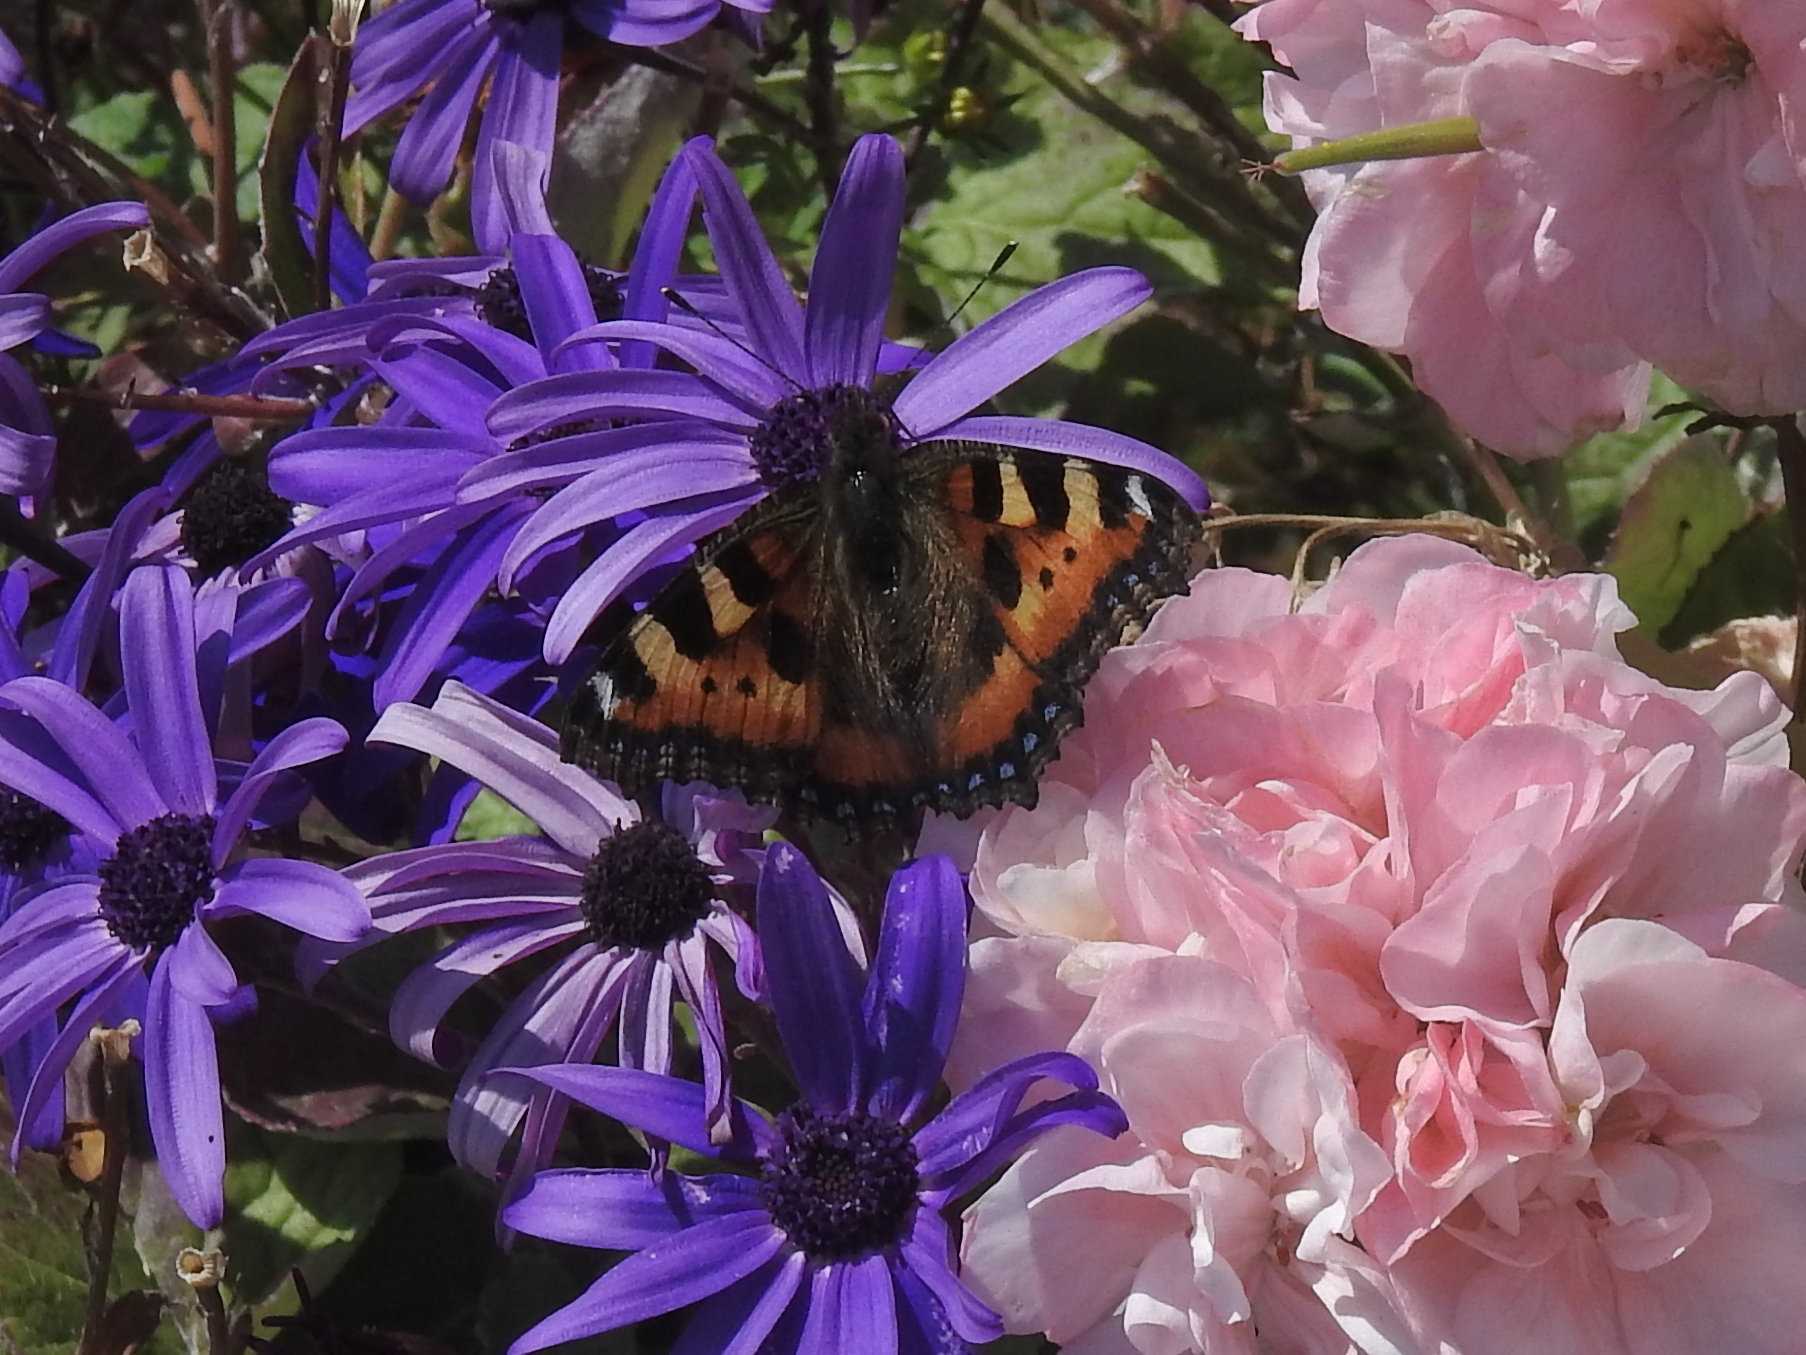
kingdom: Animalia
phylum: Arthropoda
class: Insecta
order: Lepidoptera
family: Nymphalidae
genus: Aglais
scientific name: Aglais urticae
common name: Small tortoiseshell
